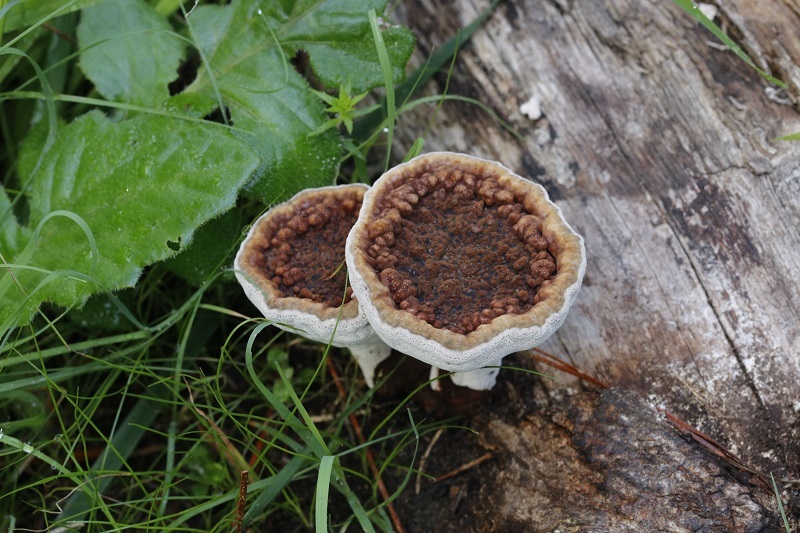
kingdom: Fungi
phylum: Basidiomycota
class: Agaricomycetes
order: Polyporales
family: Ganodermataceae
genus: Sanguinoderma
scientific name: Sanguinoderma rude
